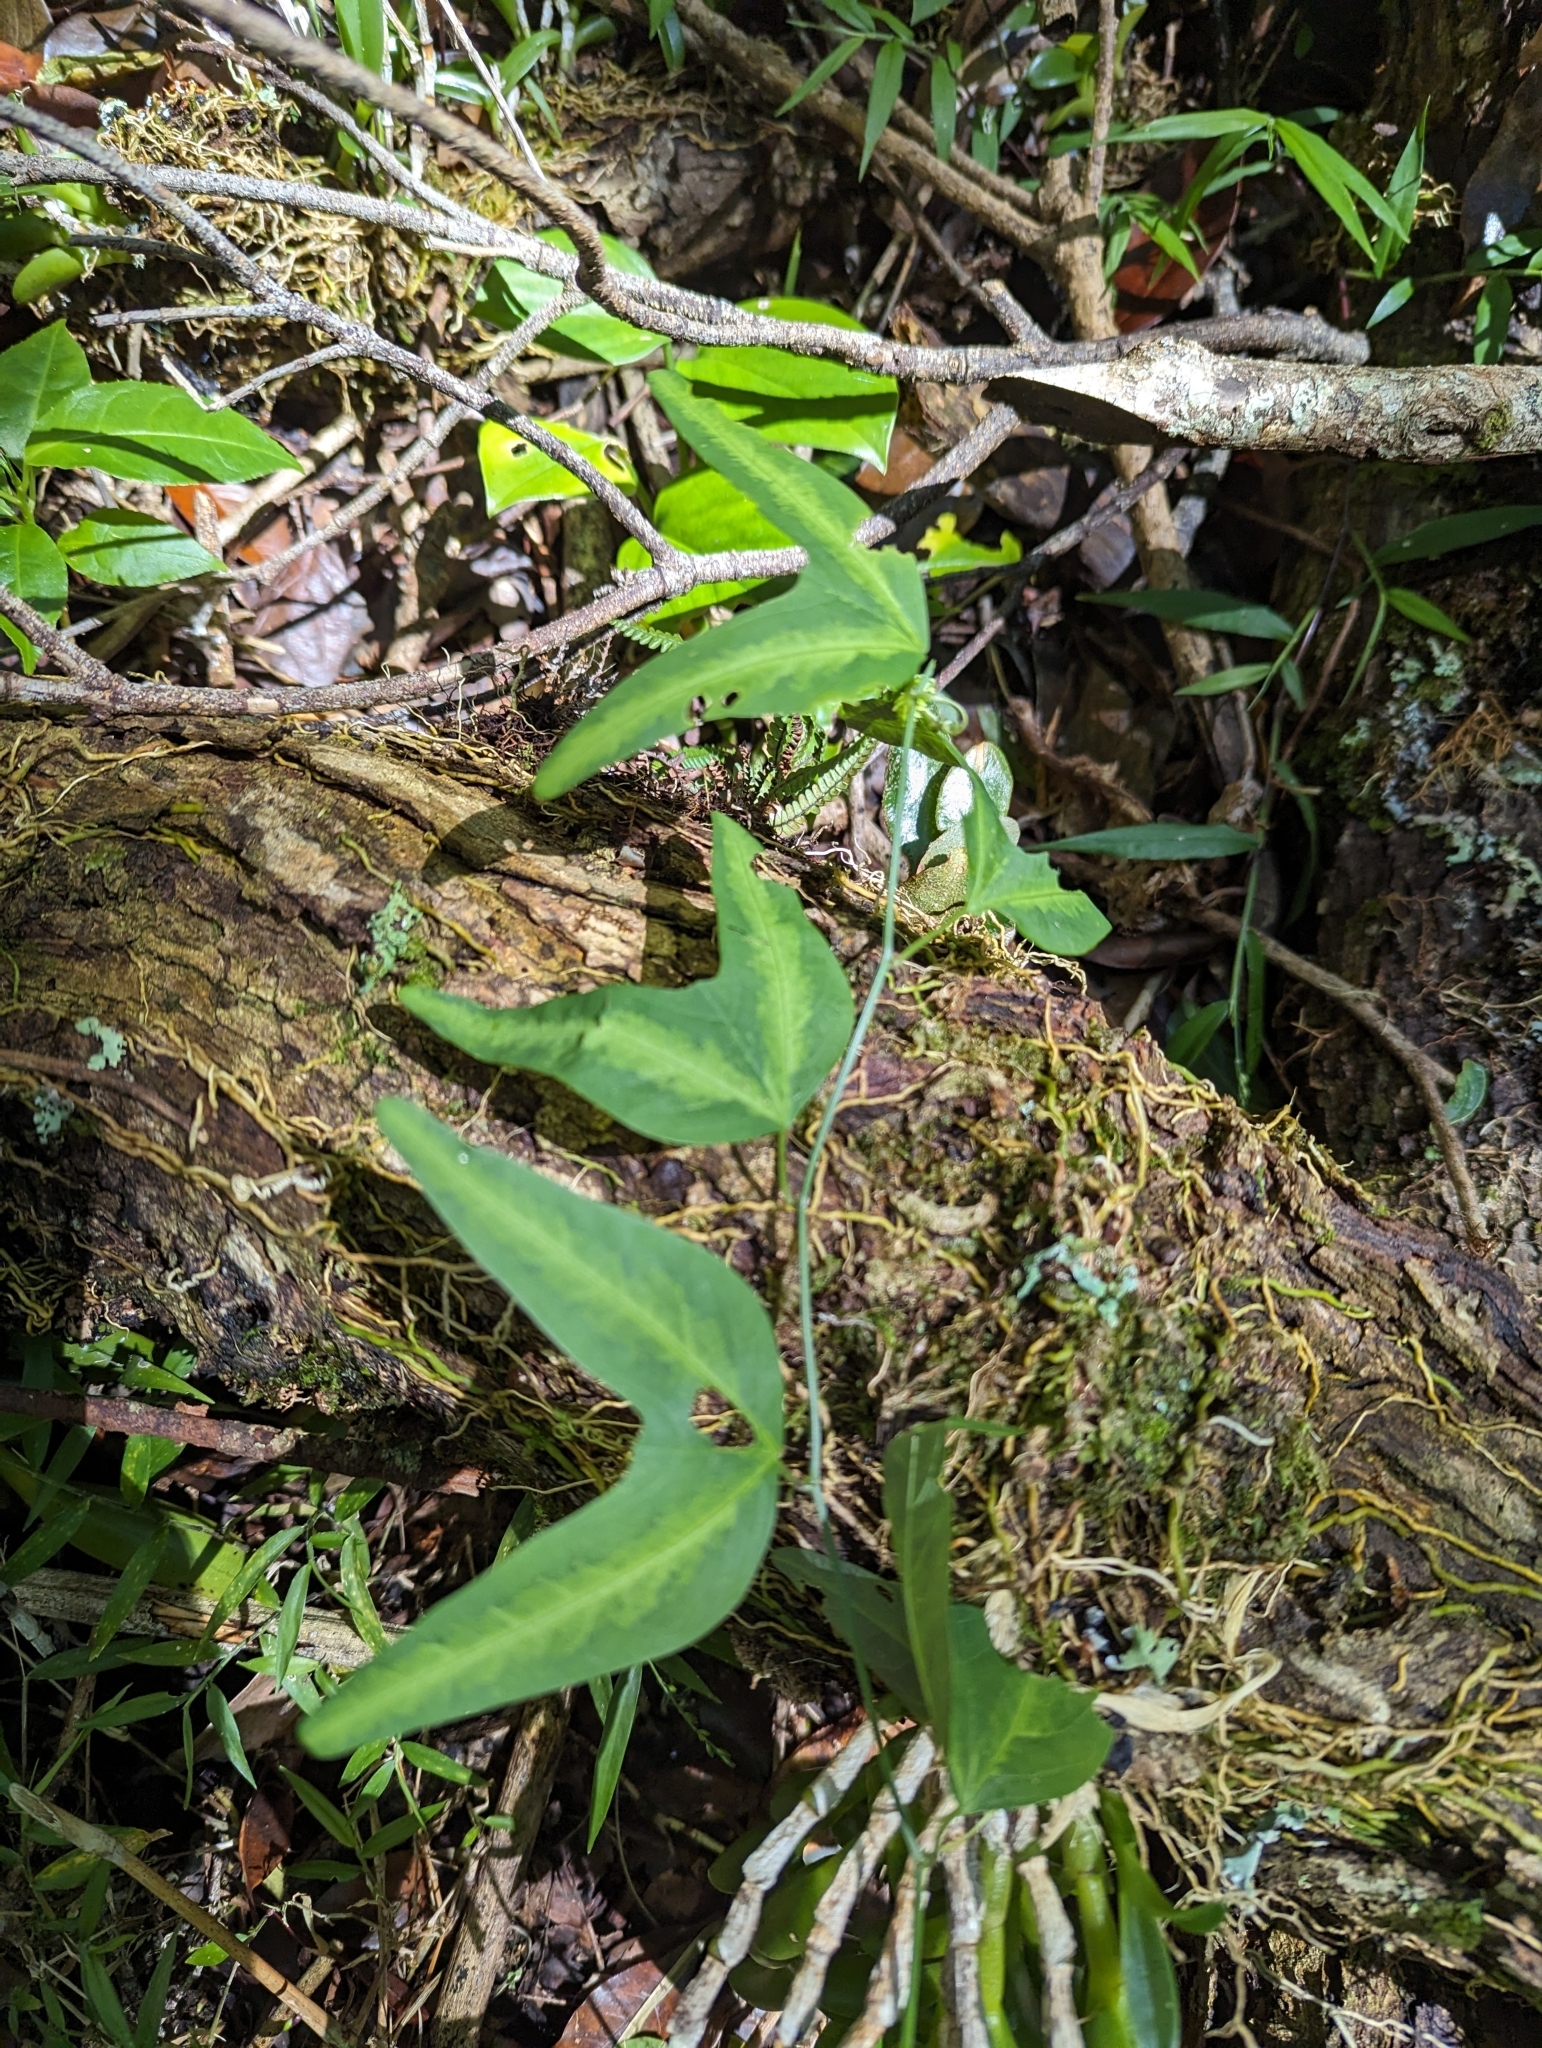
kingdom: Plantae
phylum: Tracheophyta
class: Magnoliopsida
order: Malpighiales
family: Passifloraceae
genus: Passiflora
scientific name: Passiflora apetala
